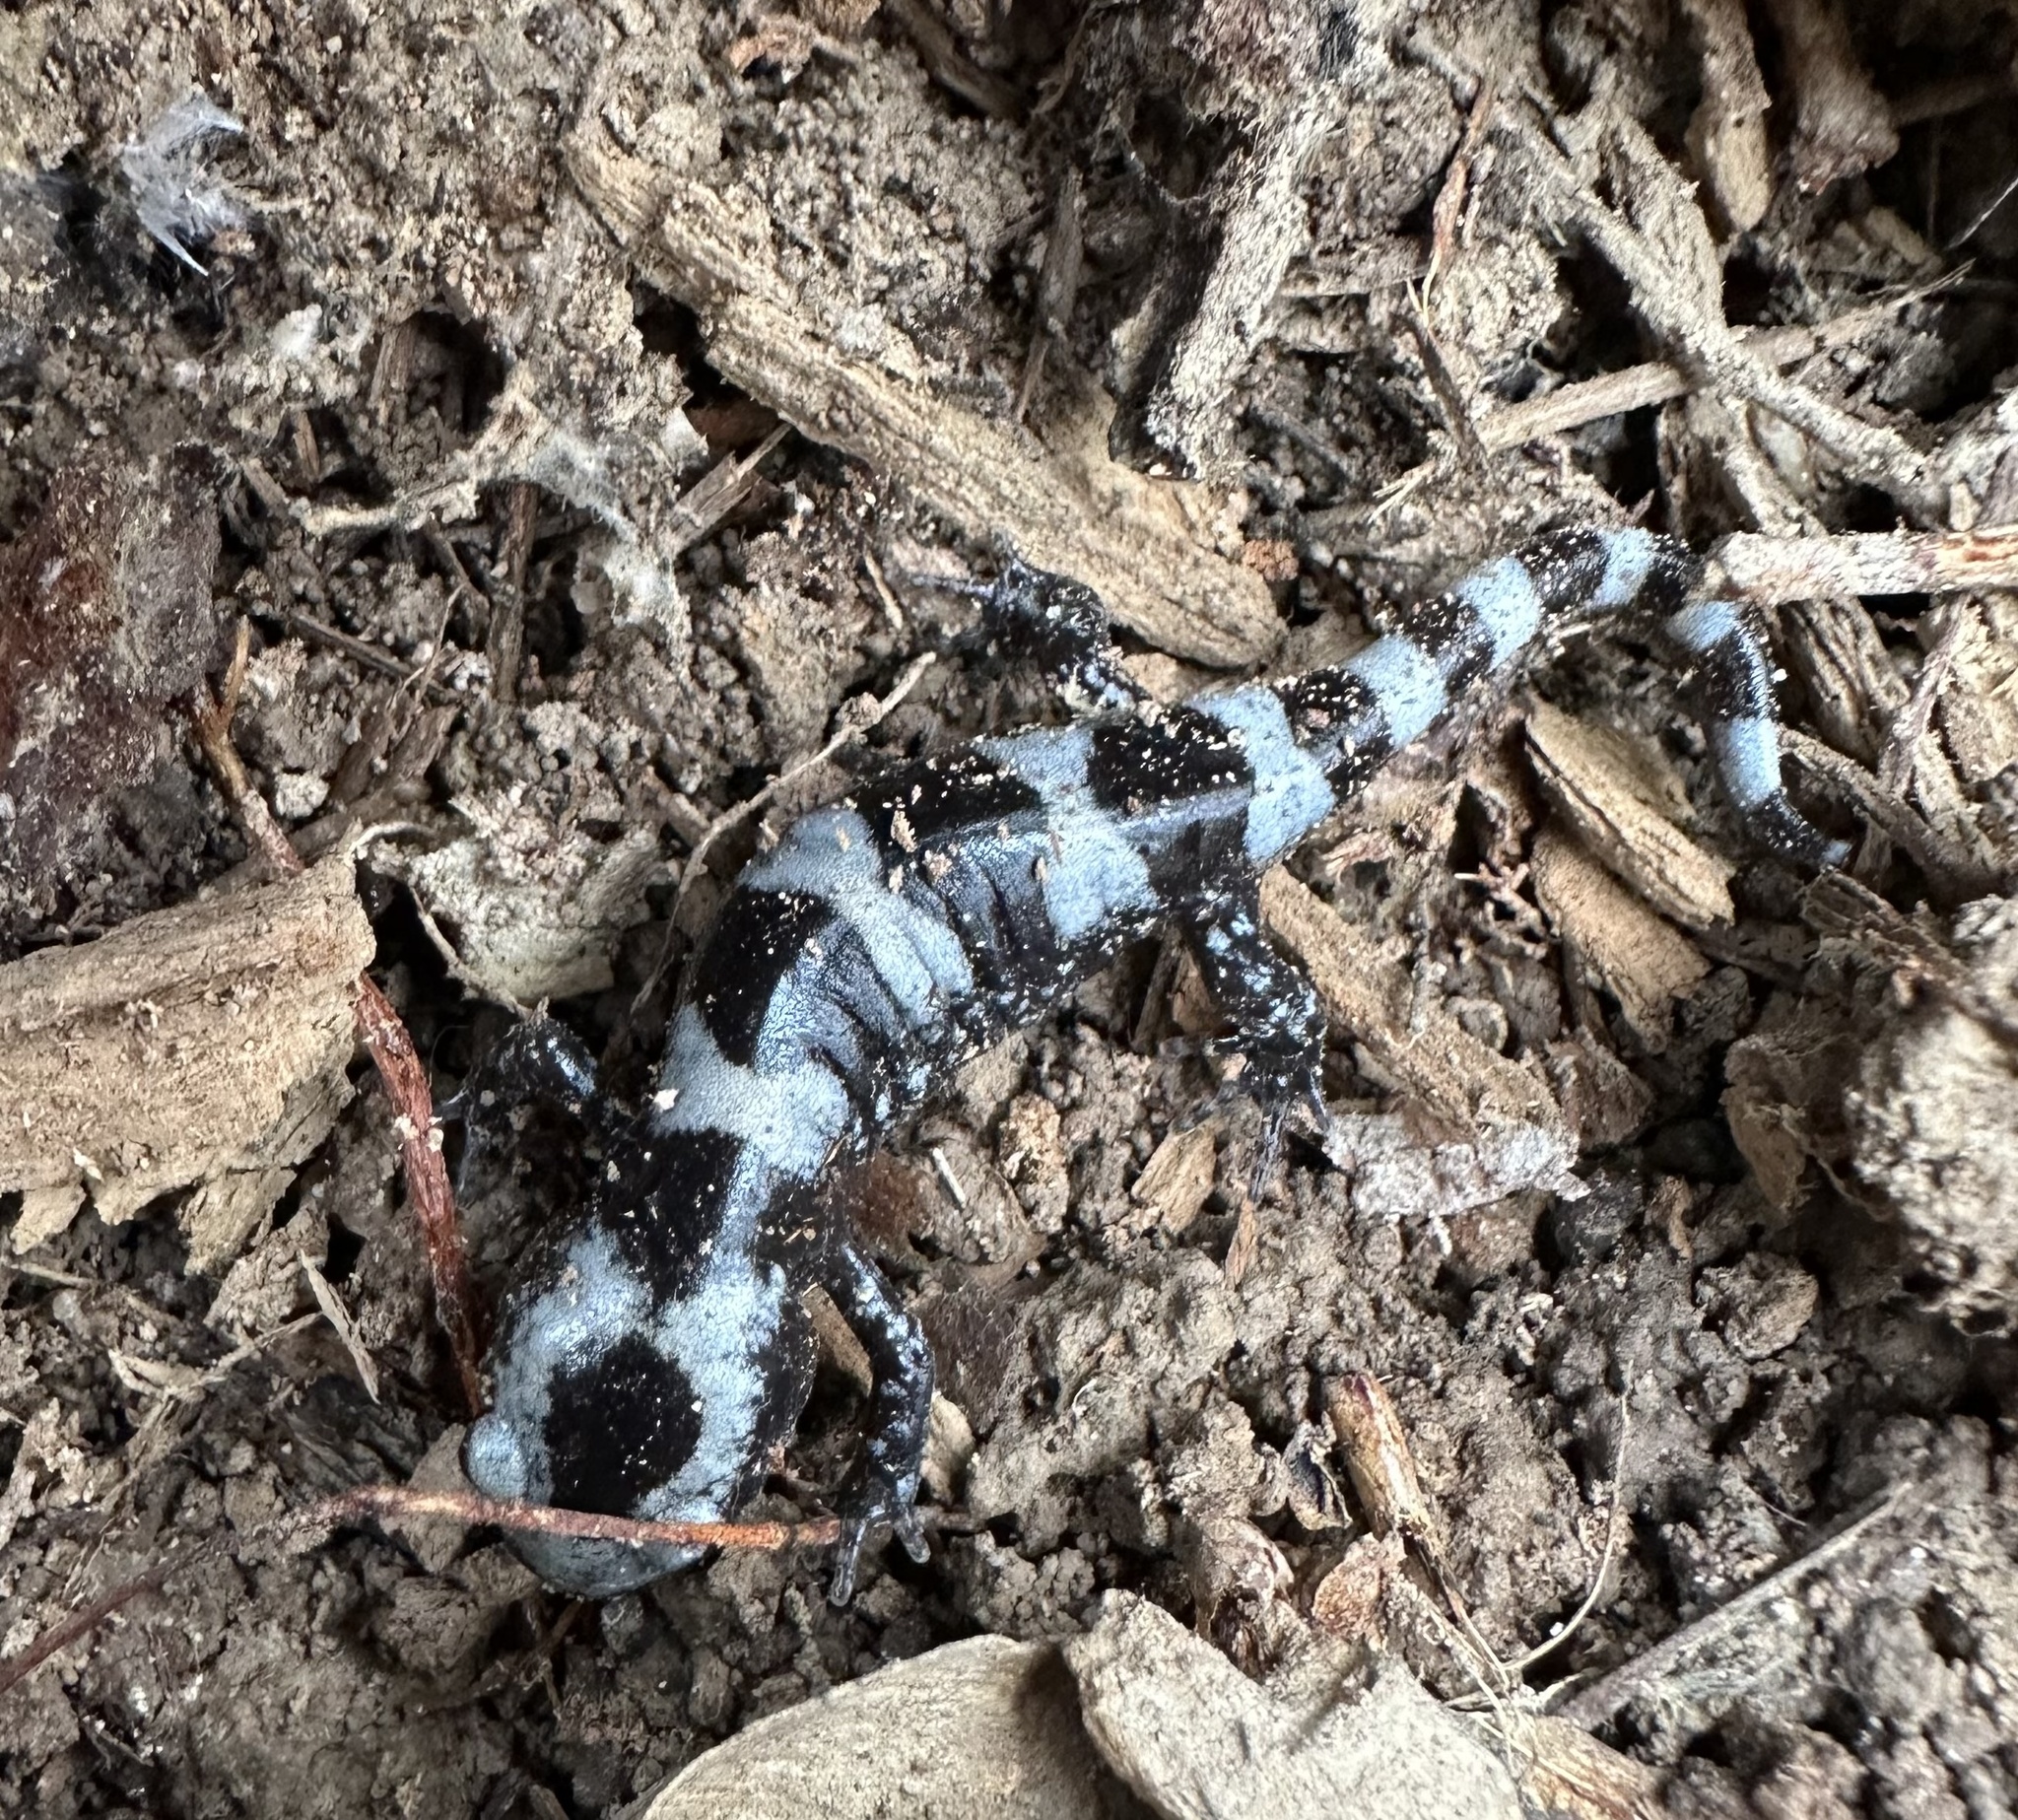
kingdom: Animalia
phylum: Chordata
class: Amphibia
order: Caudata
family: Ambystomatidae
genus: Ambystoma
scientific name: Ambystoma opacum
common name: Marbled salamander
